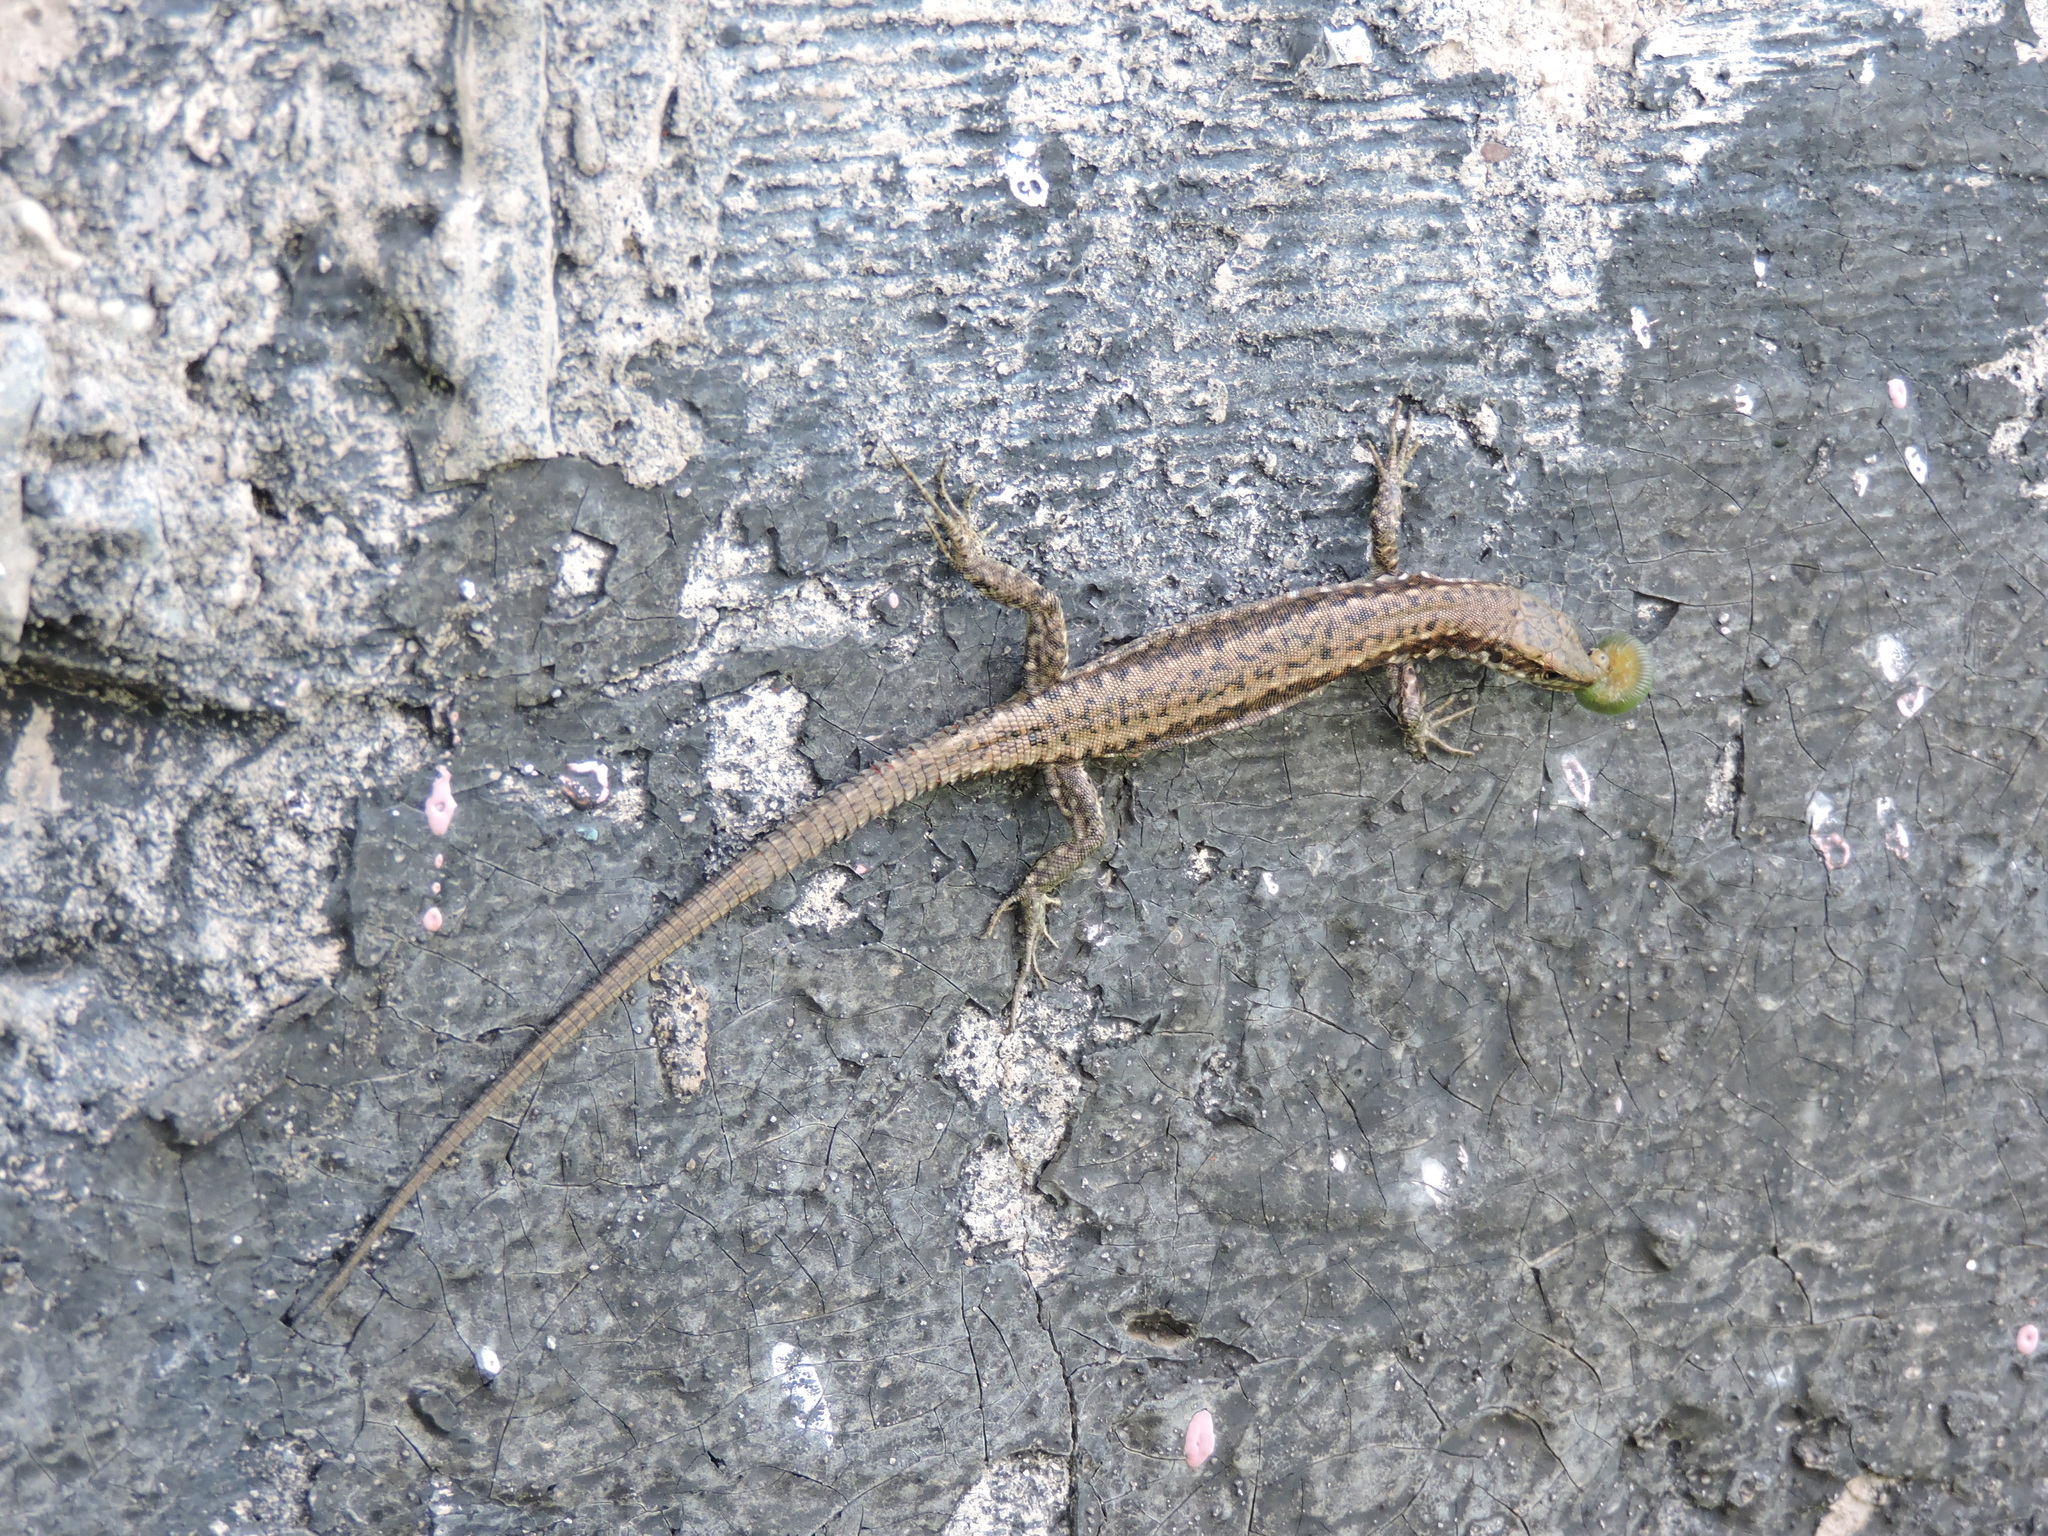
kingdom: Animalia
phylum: Chordata
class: Squamata
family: Lacertidae
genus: Darevskia
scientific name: Darevskia
